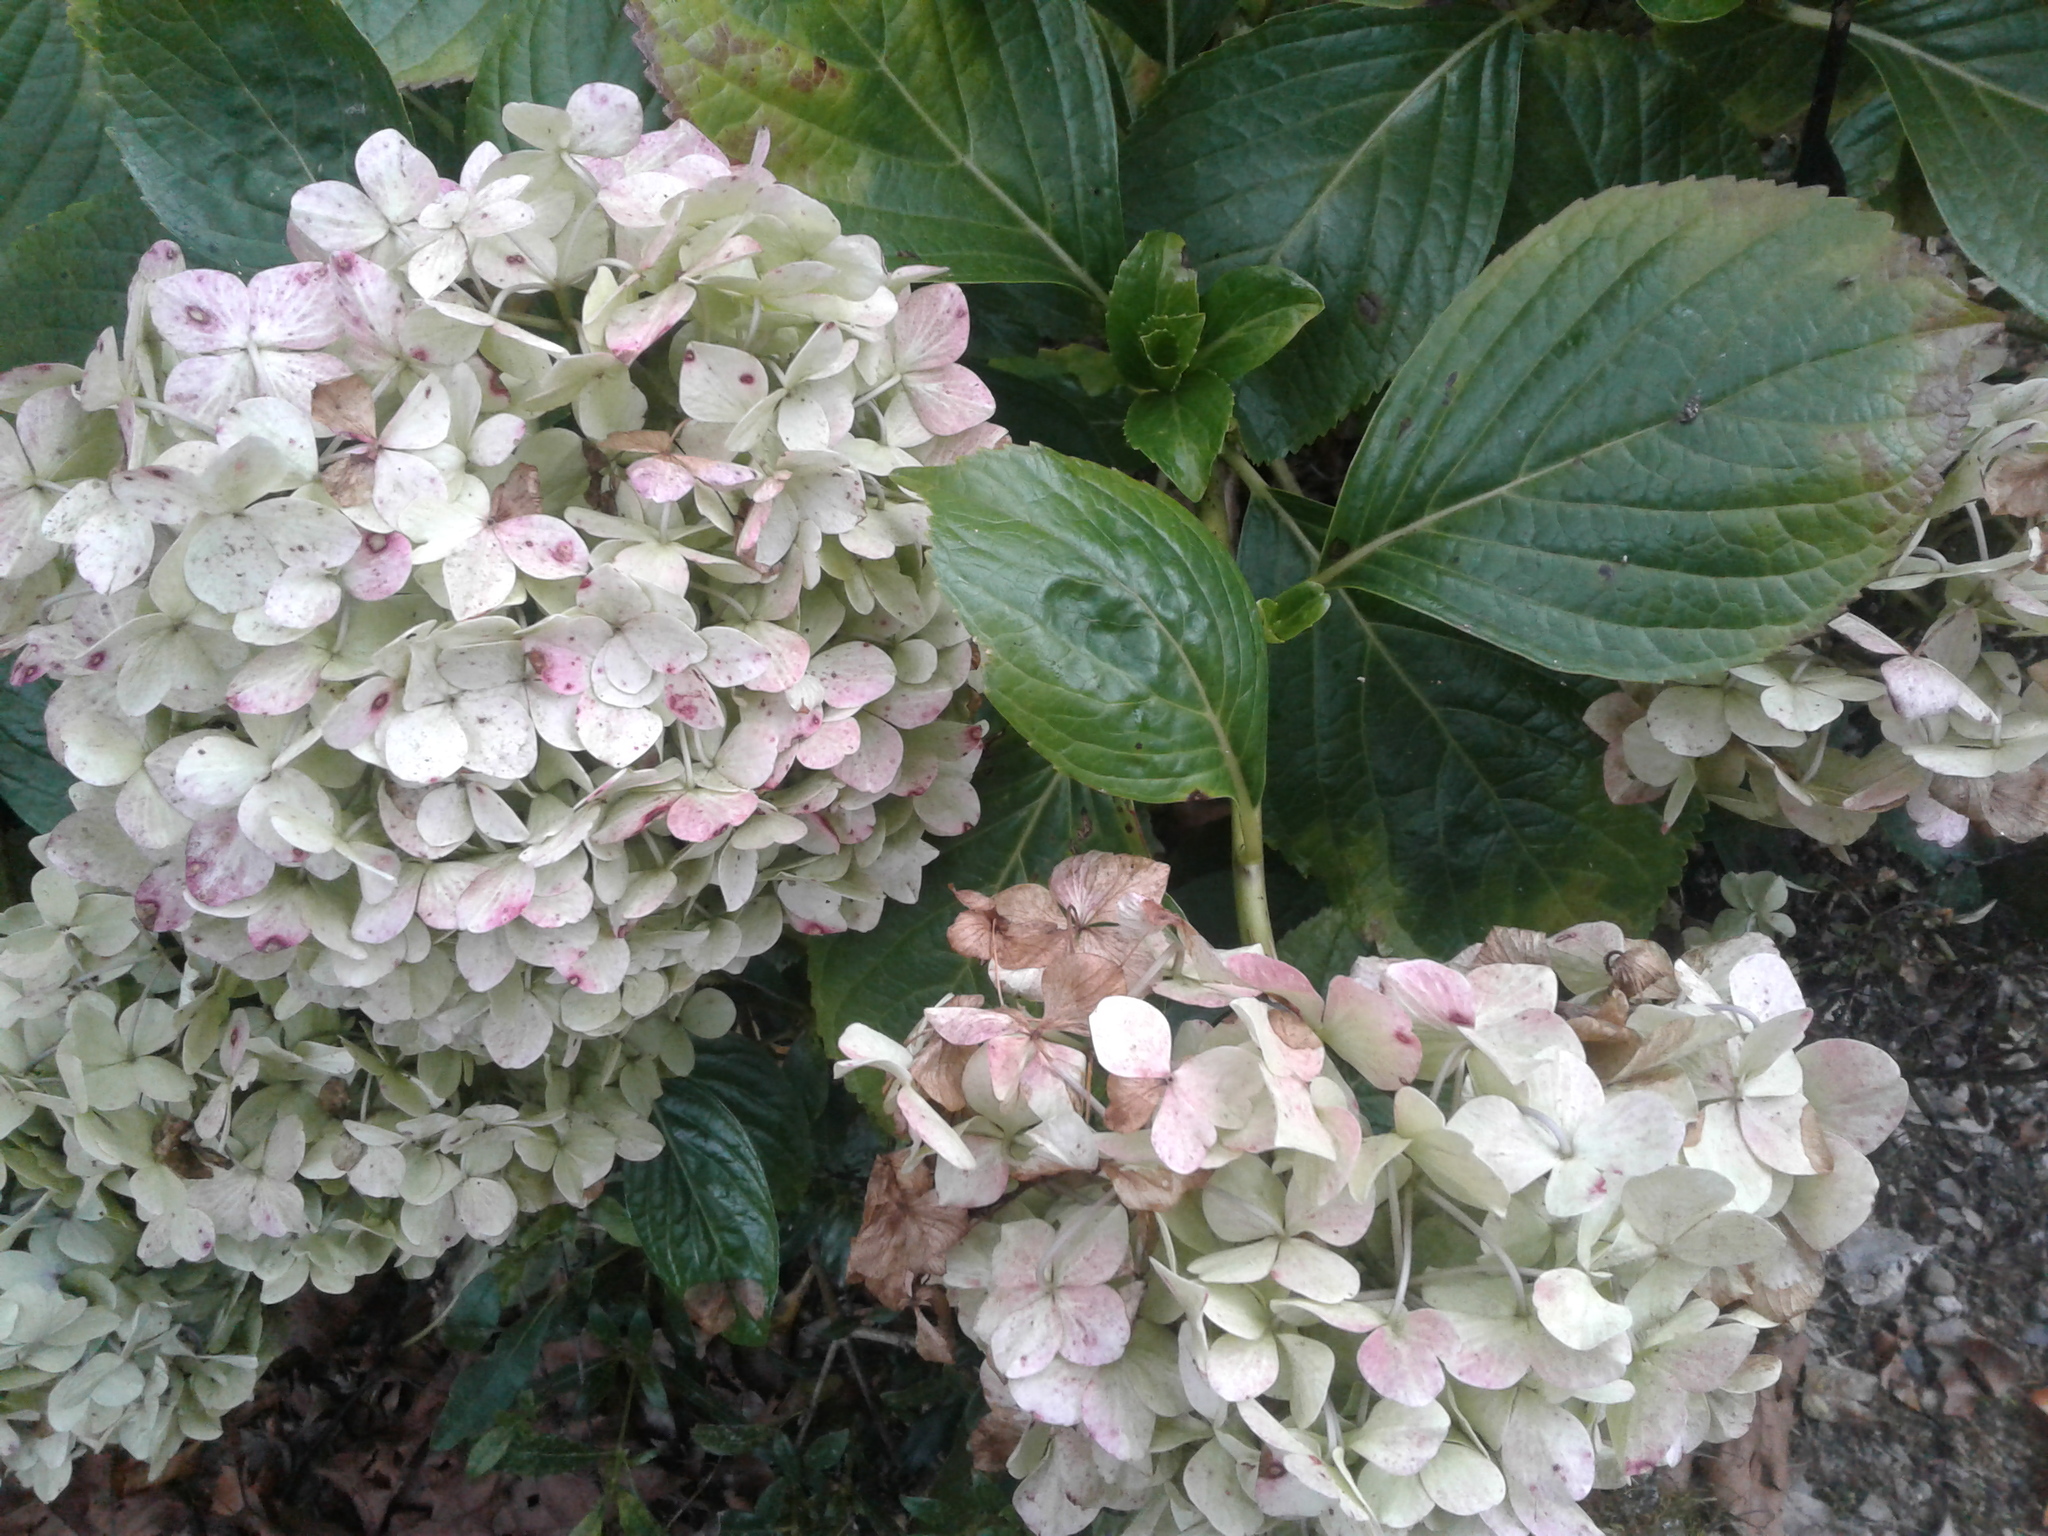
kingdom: Plantae
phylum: Tracheophyta
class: Magnoliopsida
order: Cornales
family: Hydrangeaceae
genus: Hydrangea
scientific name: Hydrangea macrophylla
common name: Hydrangea
